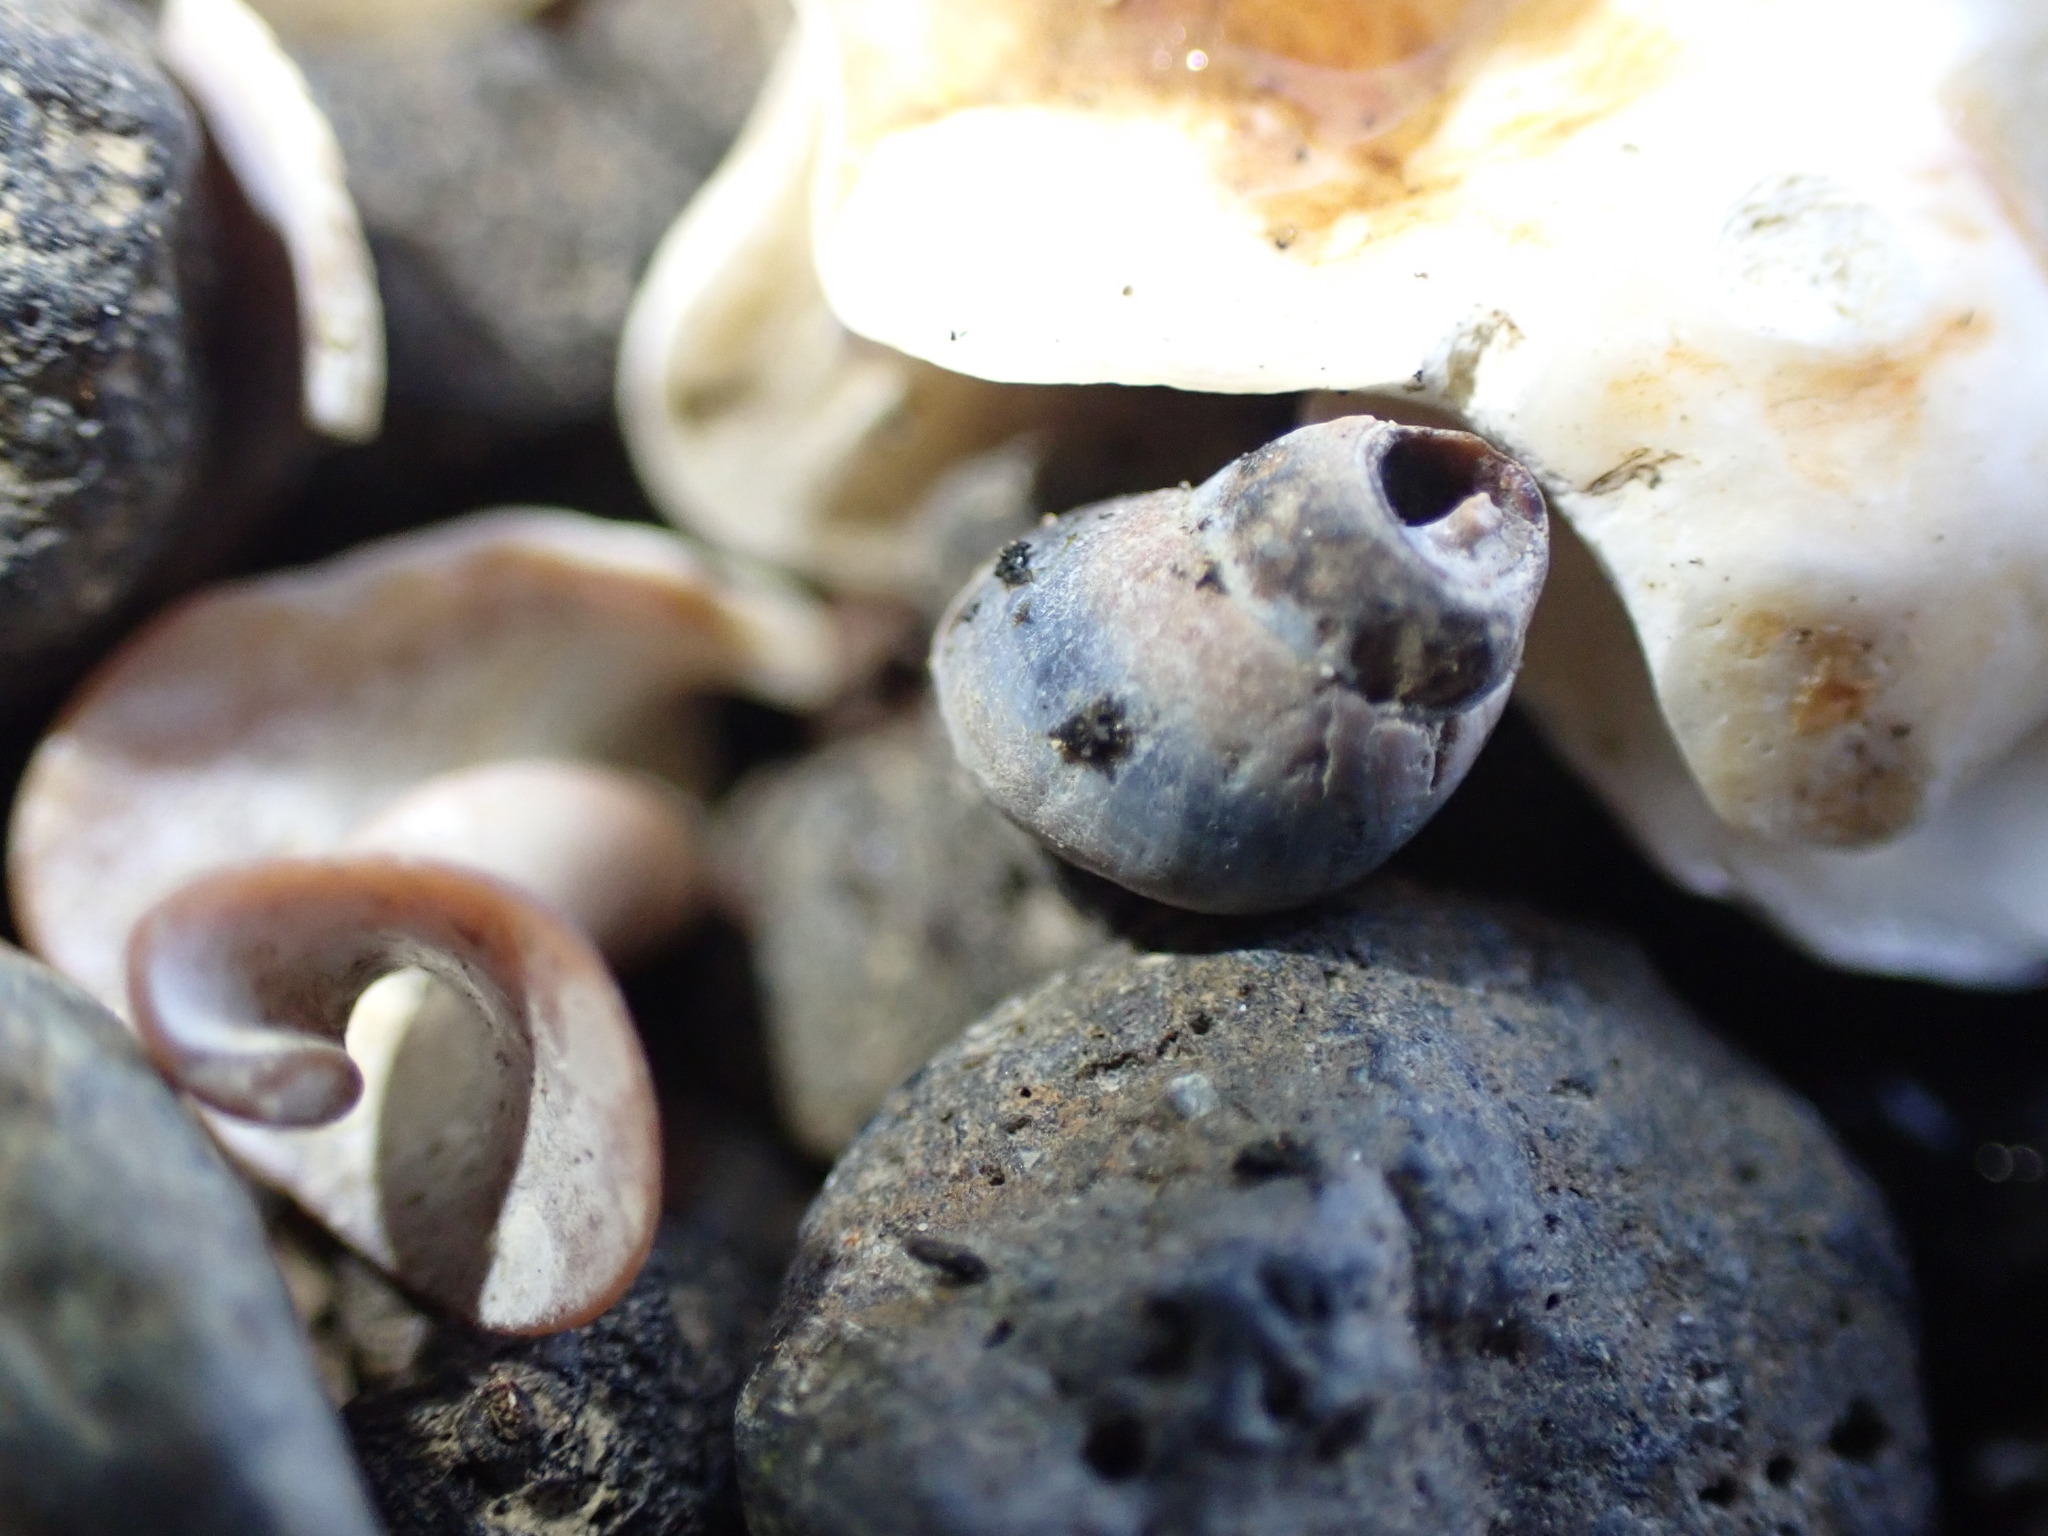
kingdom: Animalia
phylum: Mollusca
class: Gastropoda
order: Littorinimorpha
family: Littorinidae
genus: Austrolittorina
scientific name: Austrolittorina antipodum
